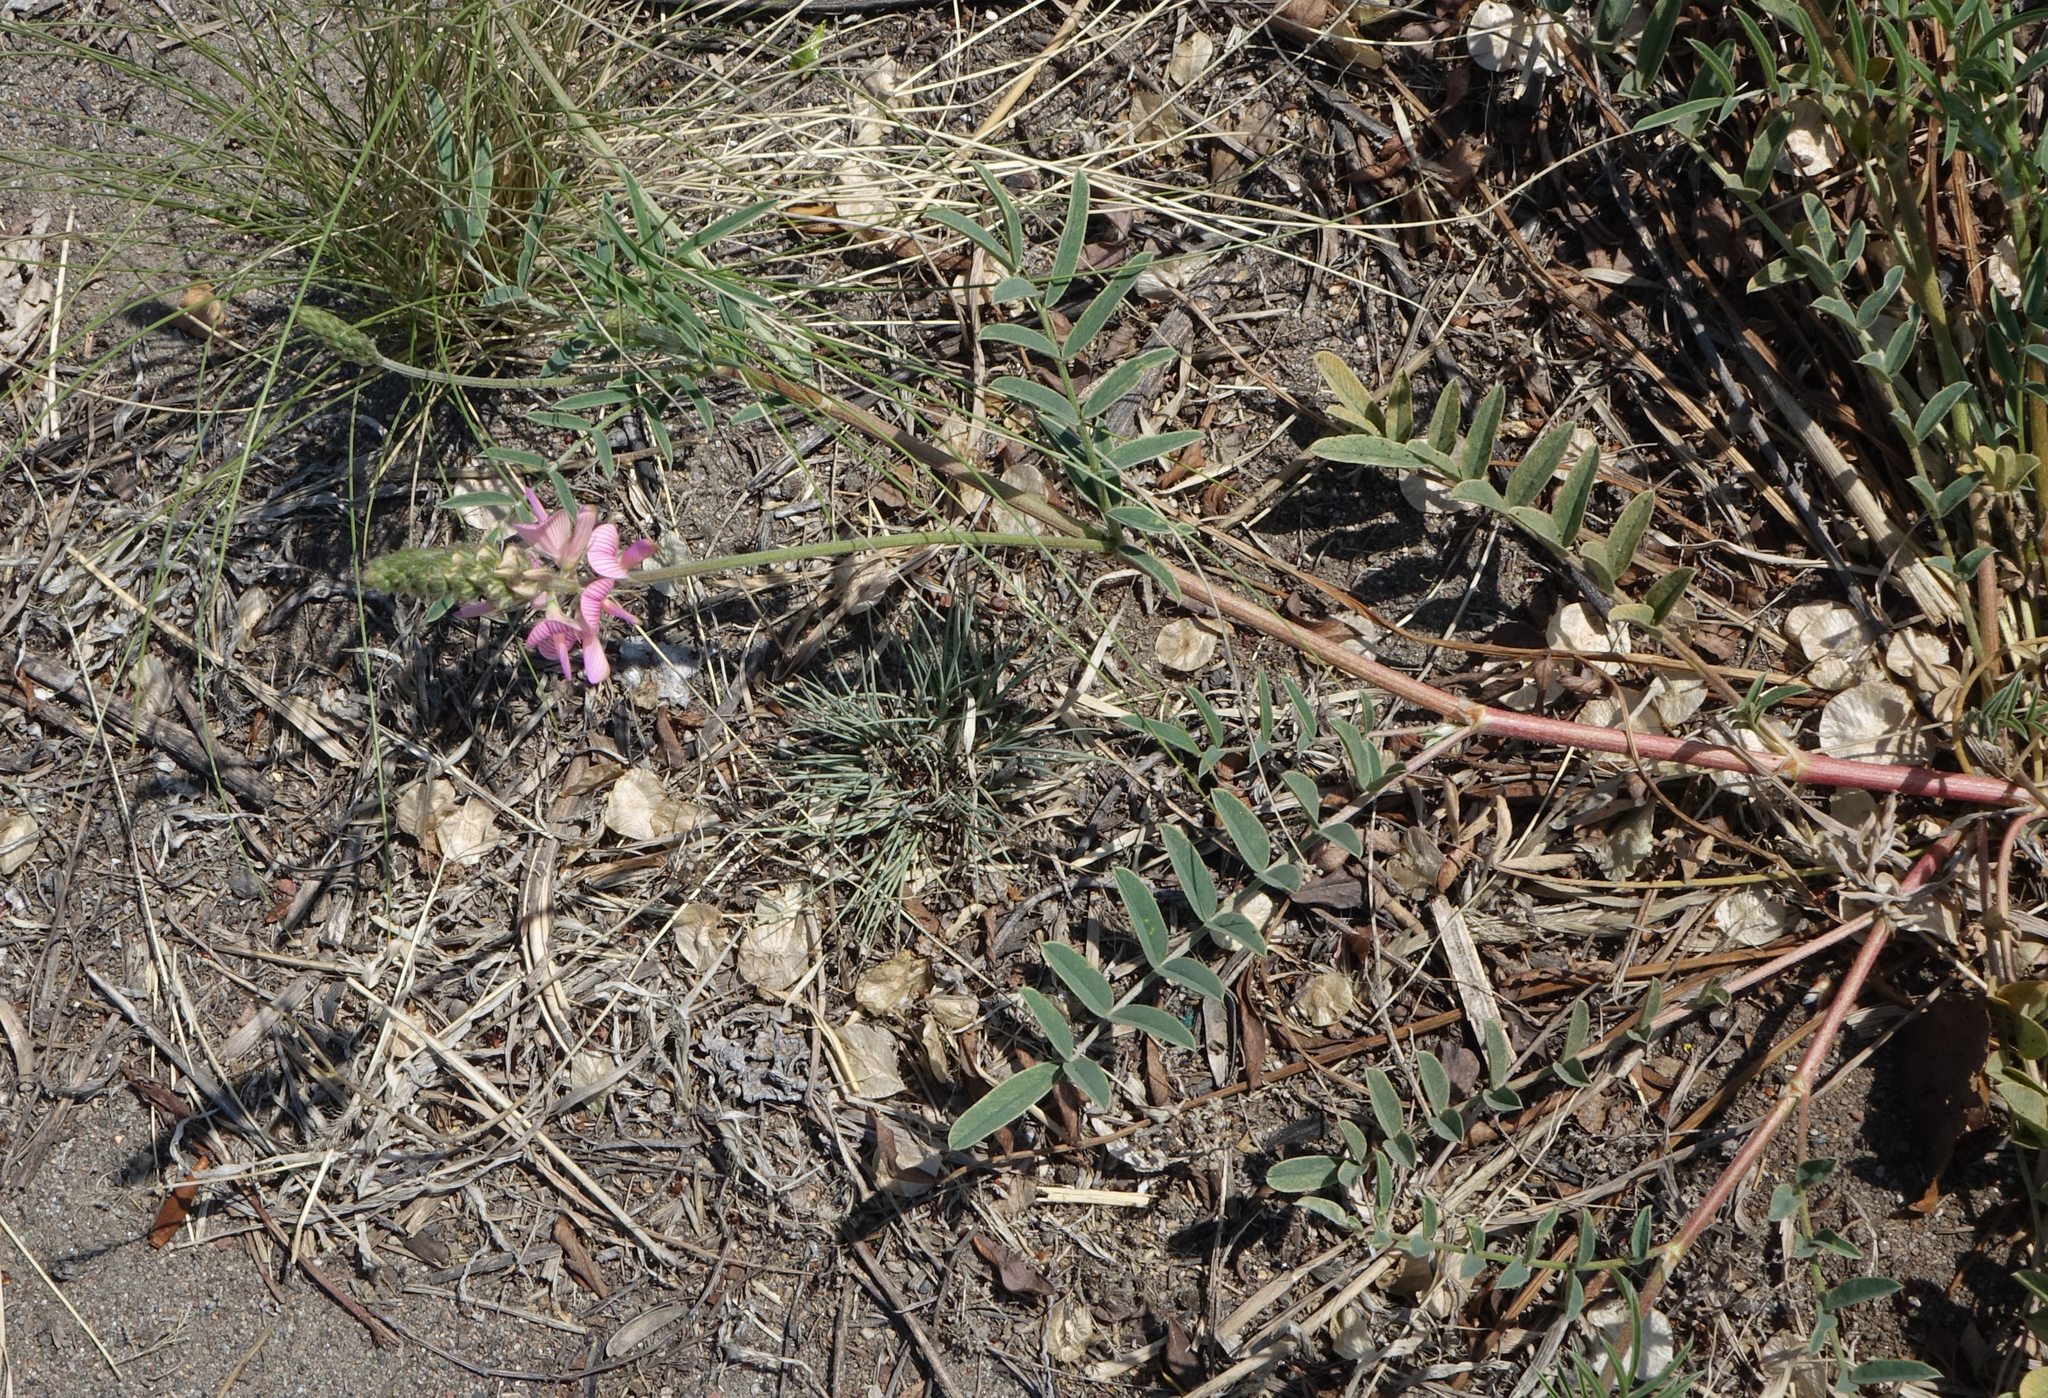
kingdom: Plantae
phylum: Tracheophyta
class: Magnoliopsida
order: Fabales
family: Fabaceae
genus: Onobrychis
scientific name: Onobrychis arenaria
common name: Sand esparcet
